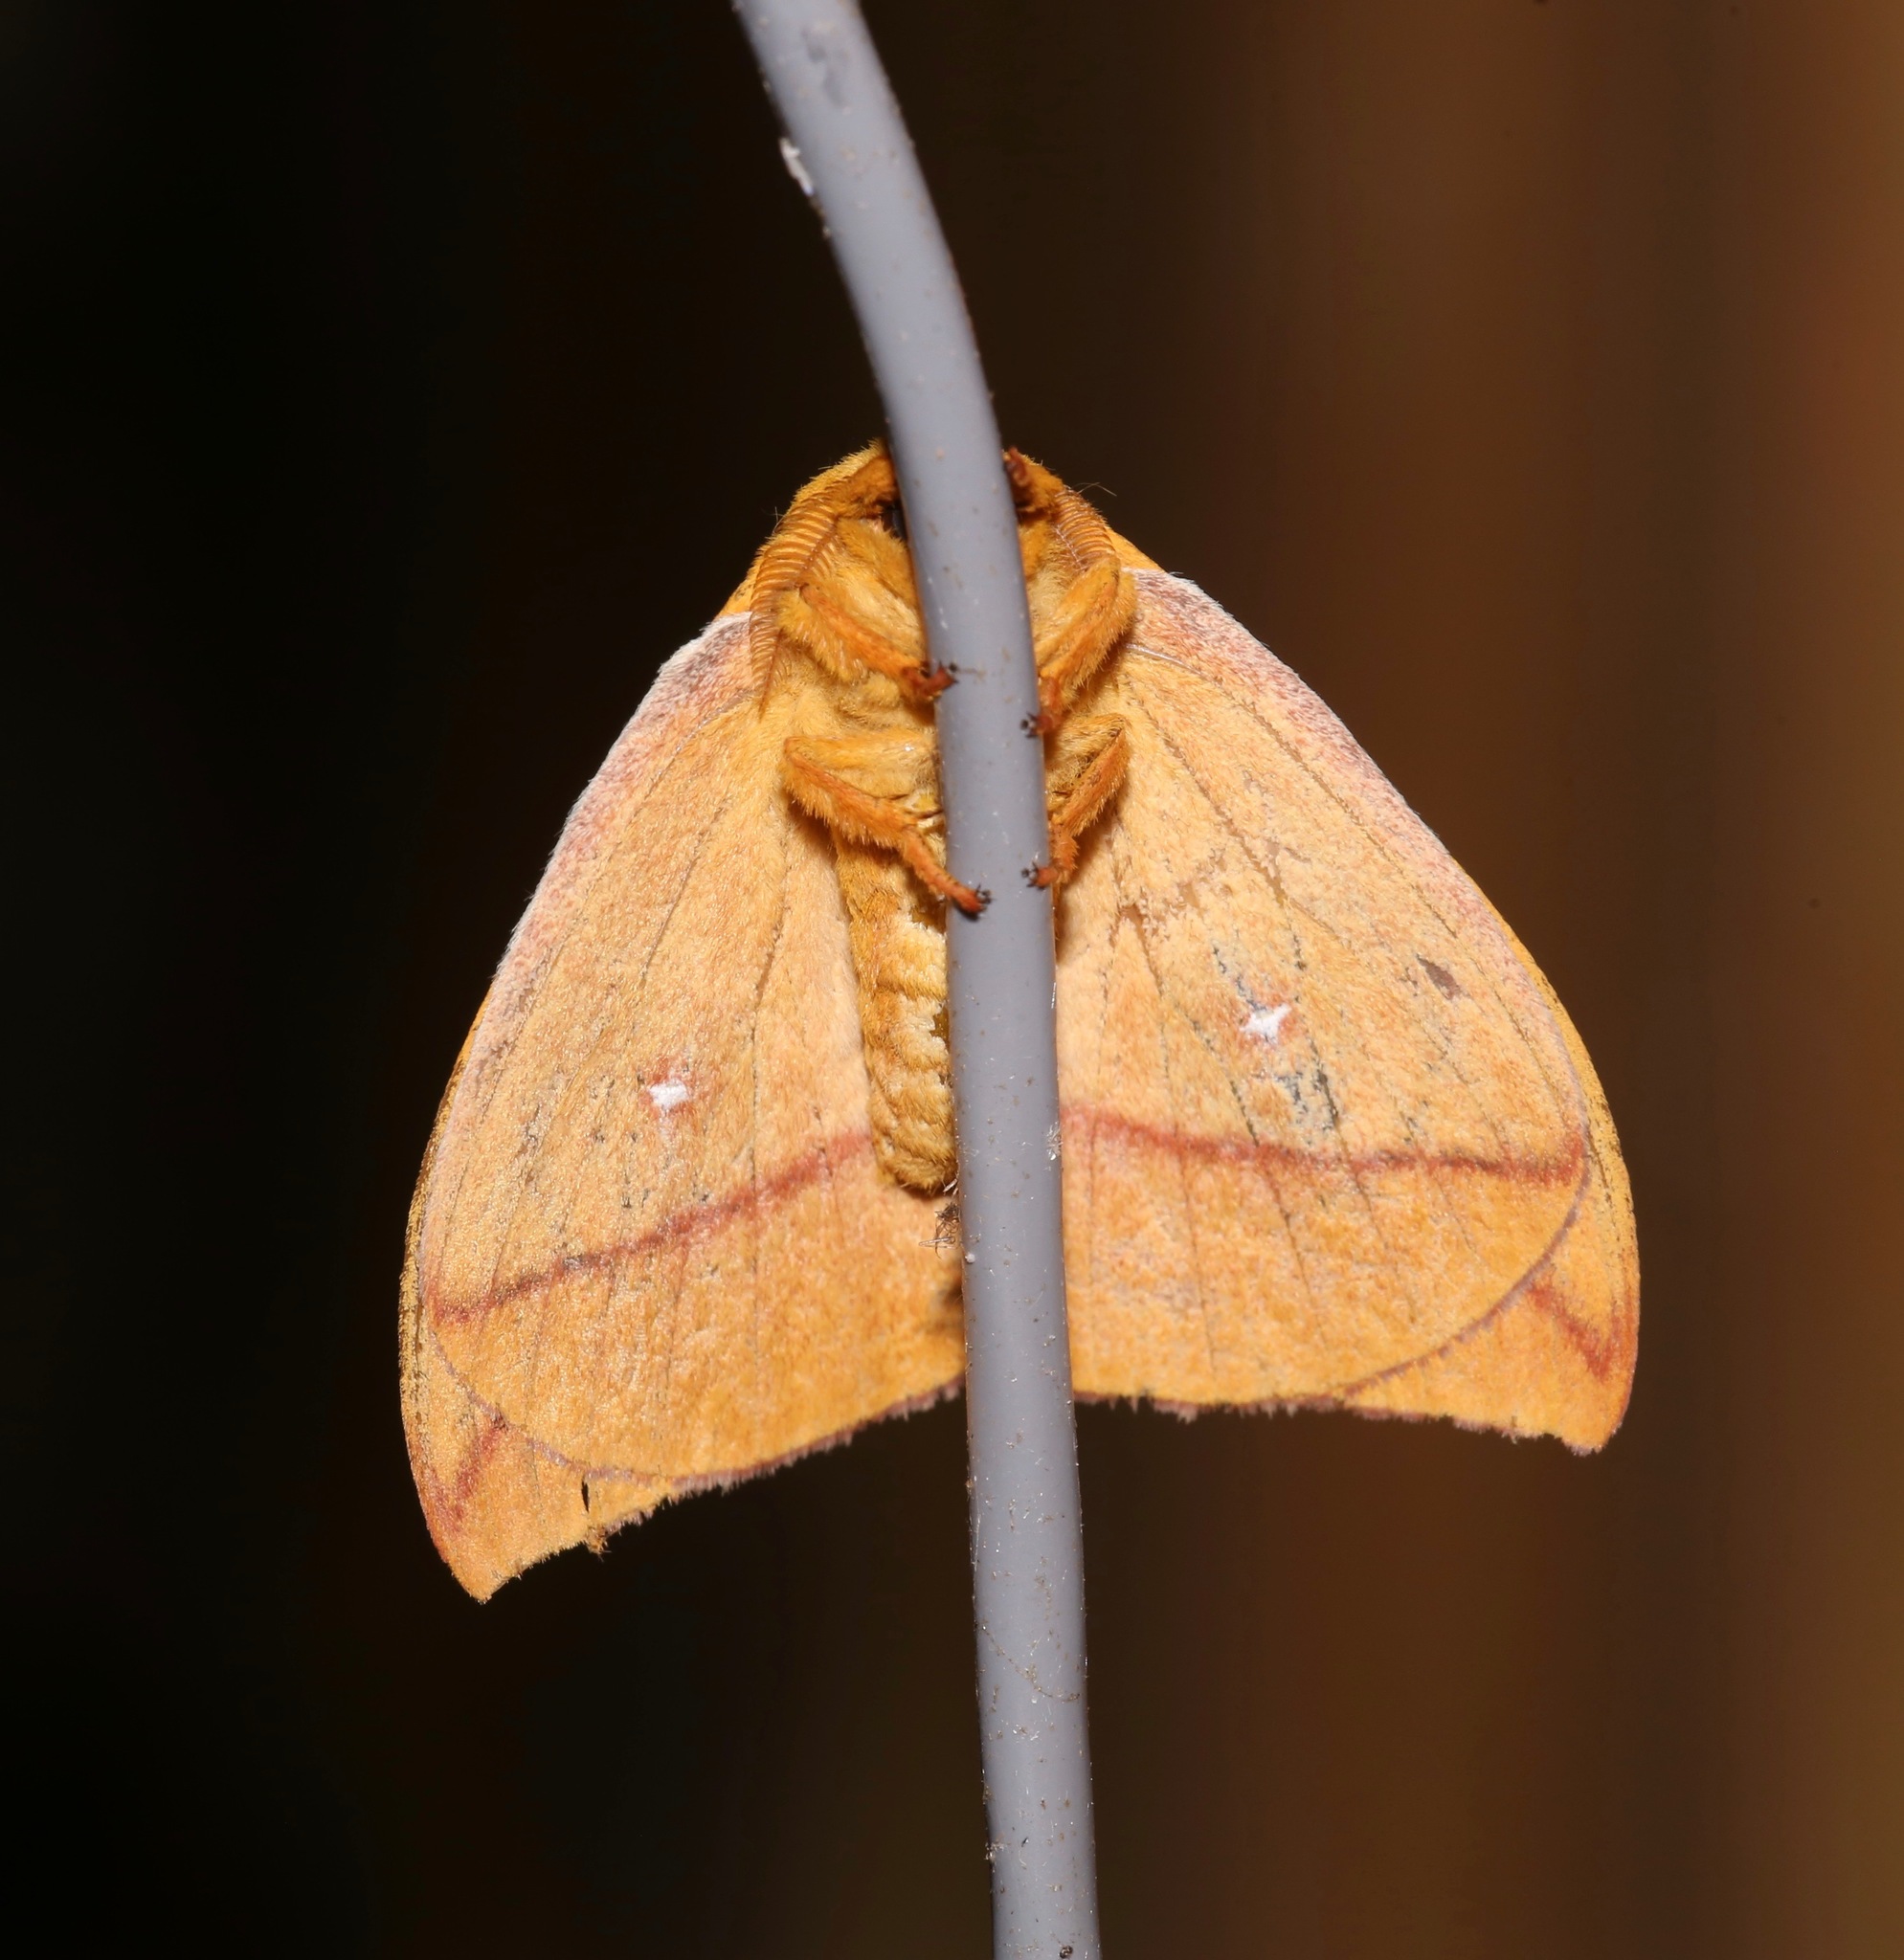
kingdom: Animalia
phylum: Arthropoda
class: Insecta
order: Lepidoptera
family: Saturniidae
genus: Automeris
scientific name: Automeris io
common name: Io moth
